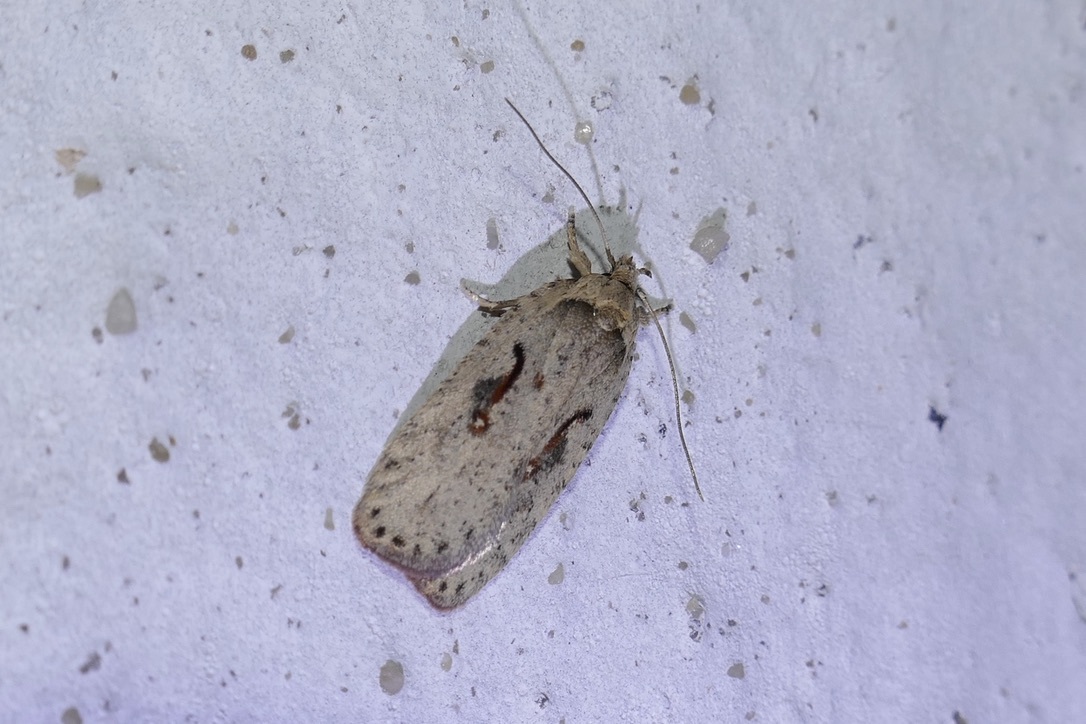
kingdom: Animalia
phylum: Arthropoda
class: Insecta
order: Lepidoptera
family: Depressariidae
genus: Agonopterix
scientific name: Agonopterix ocellana
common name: Red-letter flat-body
